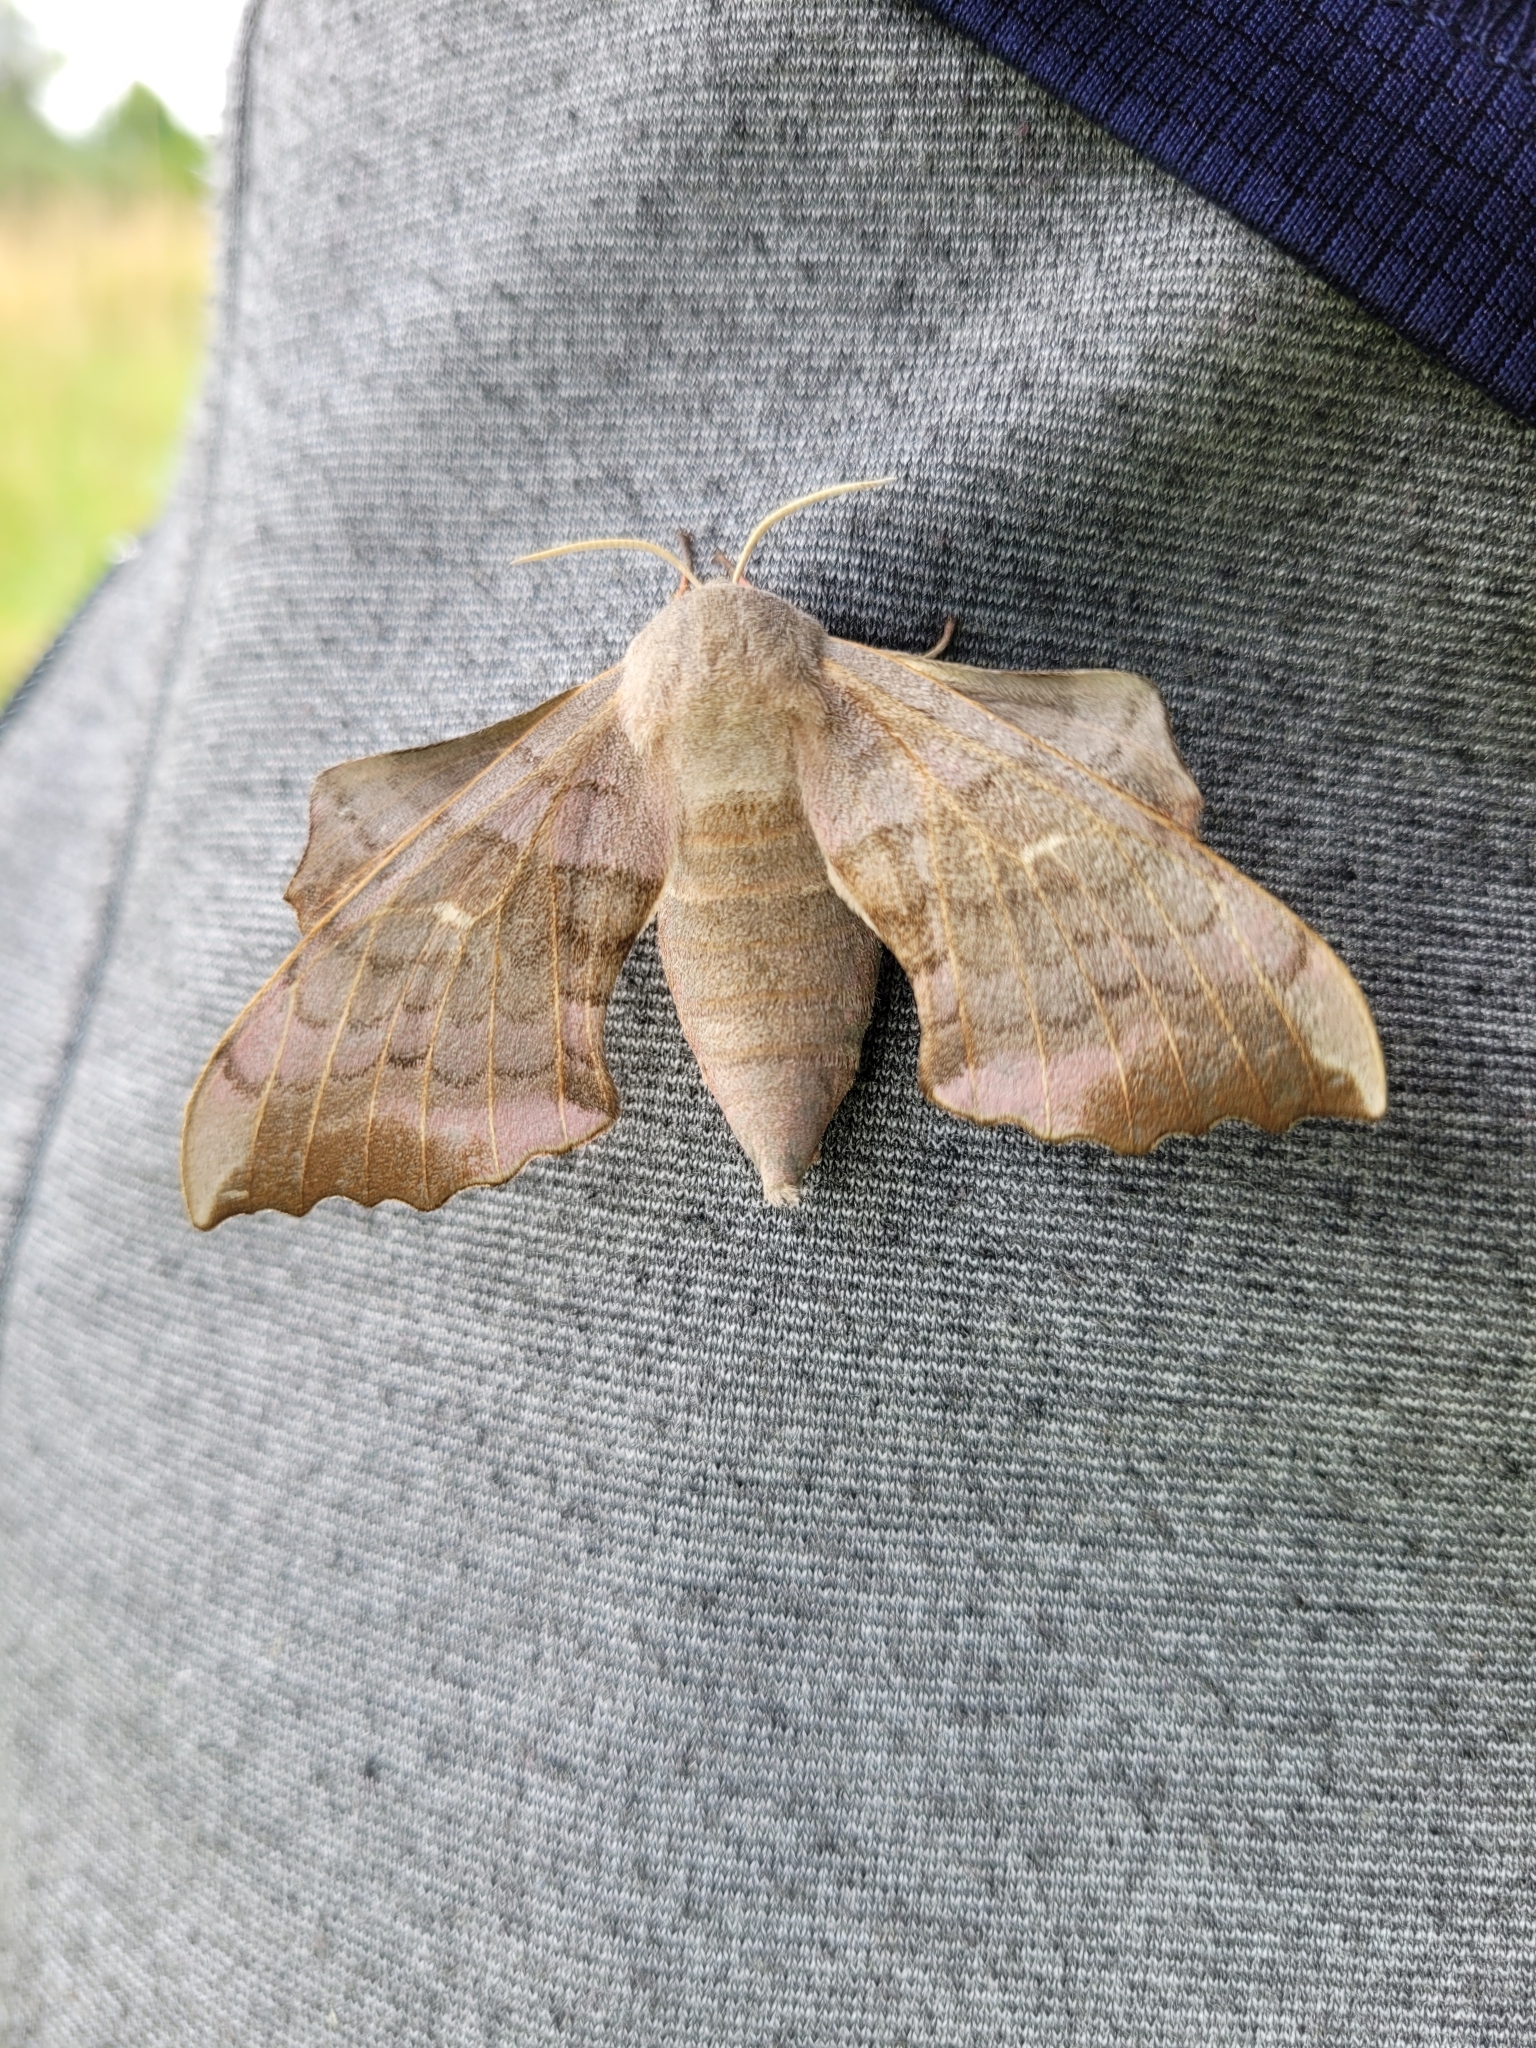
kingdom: Animalia
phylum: Arthropoda
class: Insecta
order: Lepidoptera
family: Sphingidae
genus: Laothoe
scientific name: Laothoe populi
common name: Poplar hawk-moth
